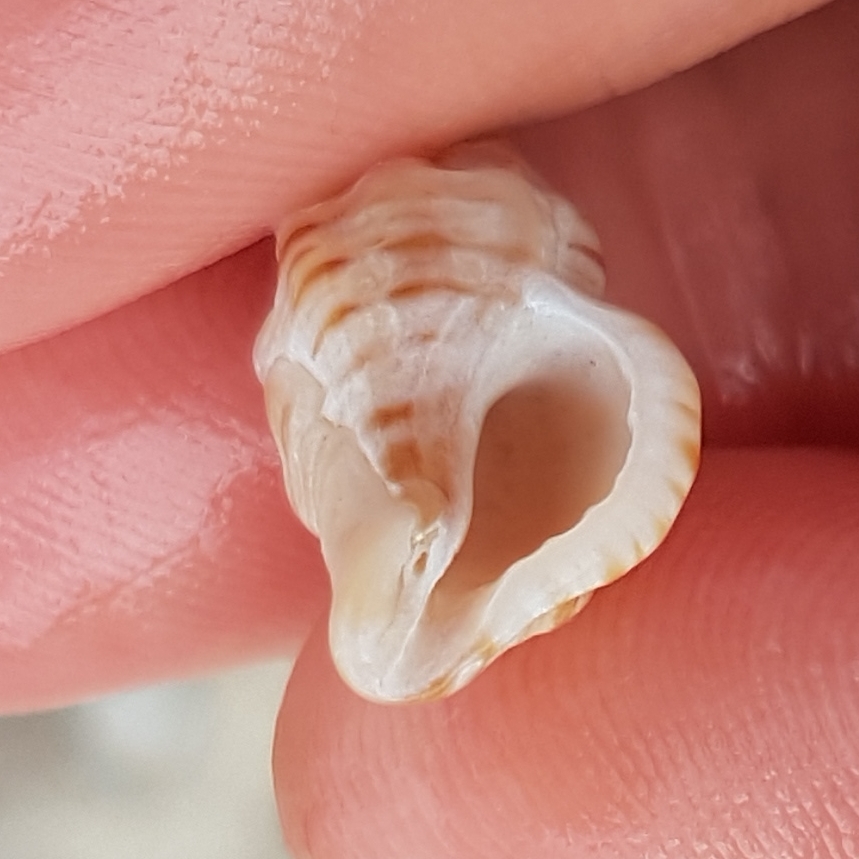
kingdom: Animalia
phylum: Mollusca
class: Gastropoda
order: Neogastropoda
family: Muricidae
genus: Ocenebra
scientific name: Ocenebra erinaceus
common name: European sting winkle
